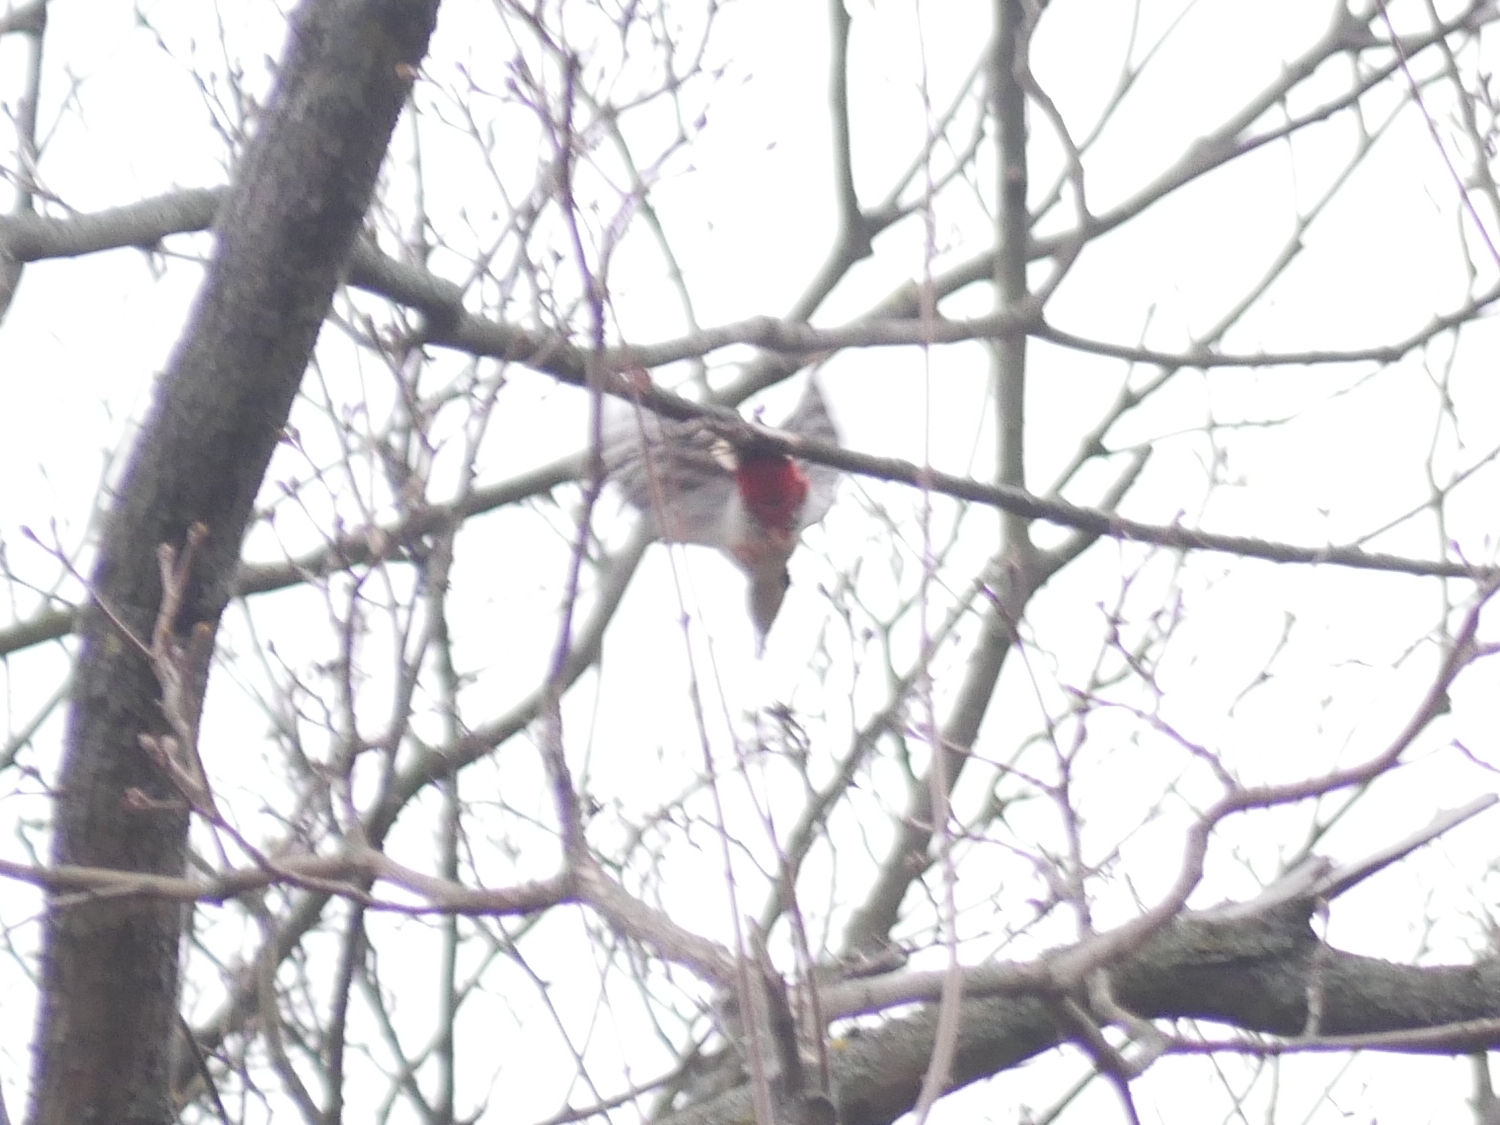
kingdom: Animalia
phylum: Chordata
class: Aves
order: Piciformes
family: Picidae
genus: Dendrocopos
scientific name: Dendrocopos major
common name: Great spotted woodpecker
